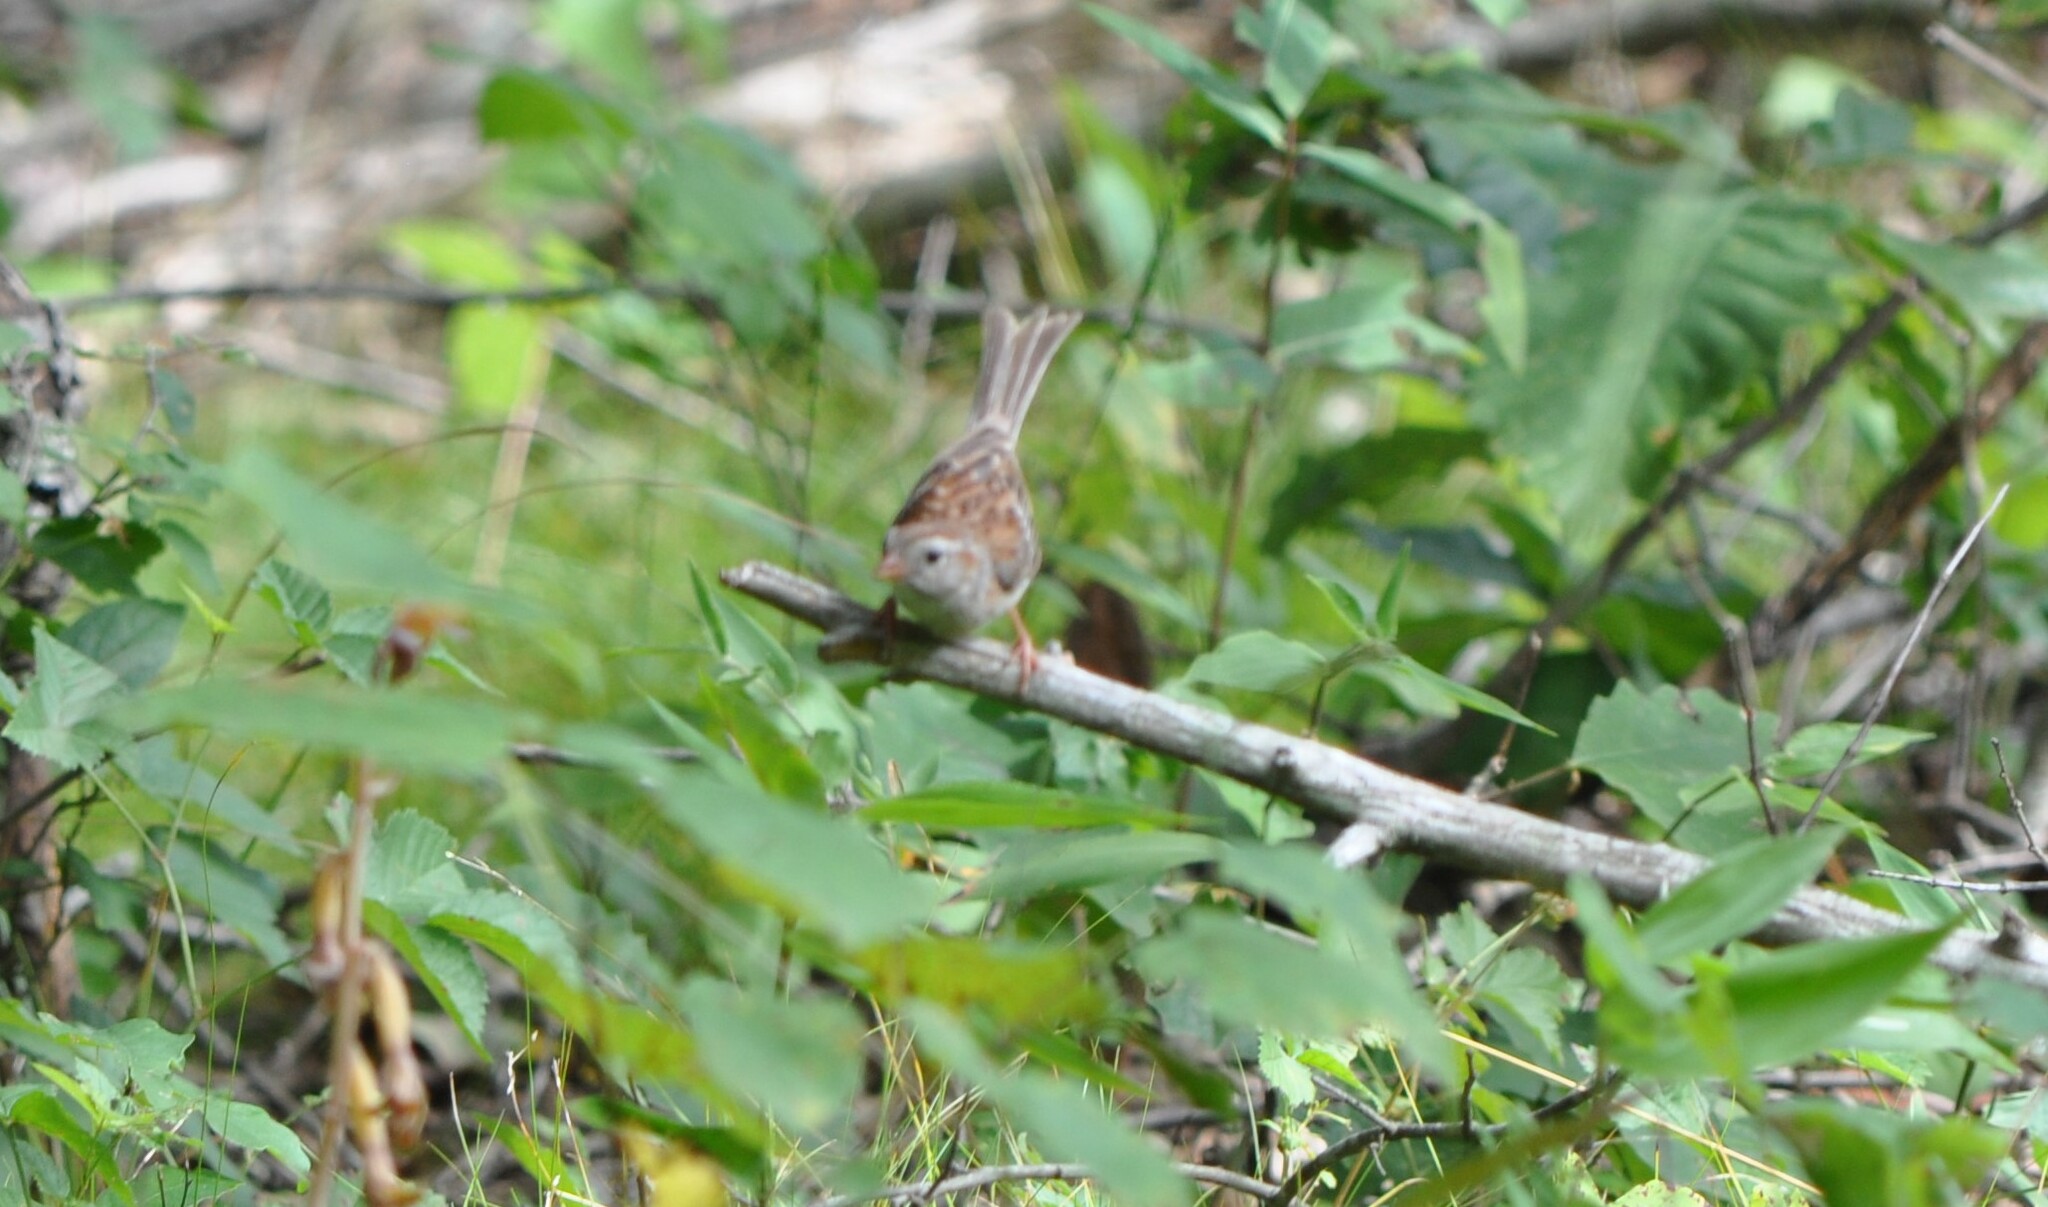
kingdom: Animalia
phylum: Chordata
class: Aves
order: Passeriformes
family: Passerellidae
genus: Spizella
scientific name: Spizella pusilla
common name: Field sparrow
